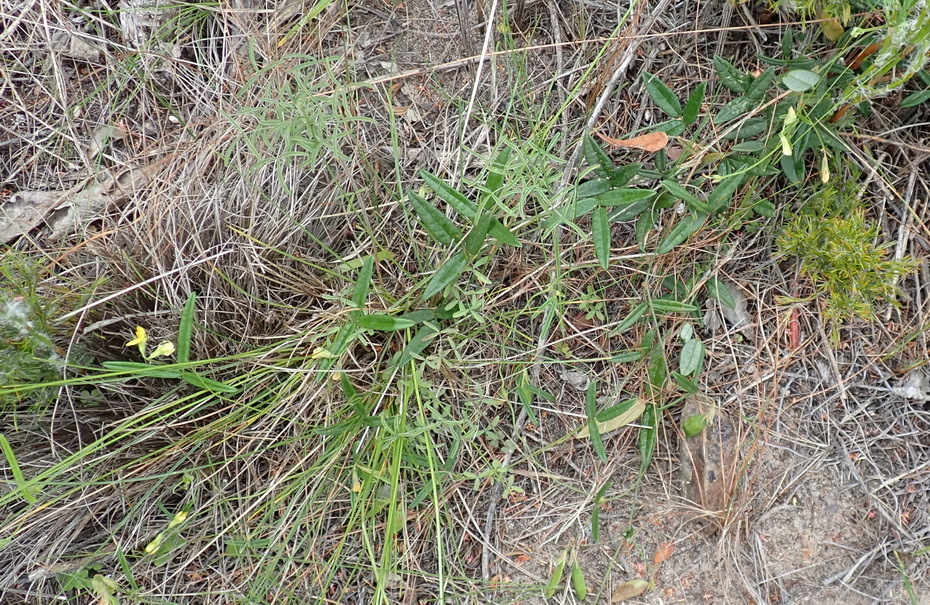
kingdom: Plantae
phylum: Tracheophyta
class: Magnoliopsida
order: Fabales
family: Fabaceae
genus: Rhynchosia
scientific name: Rhynchosia leucoscias
